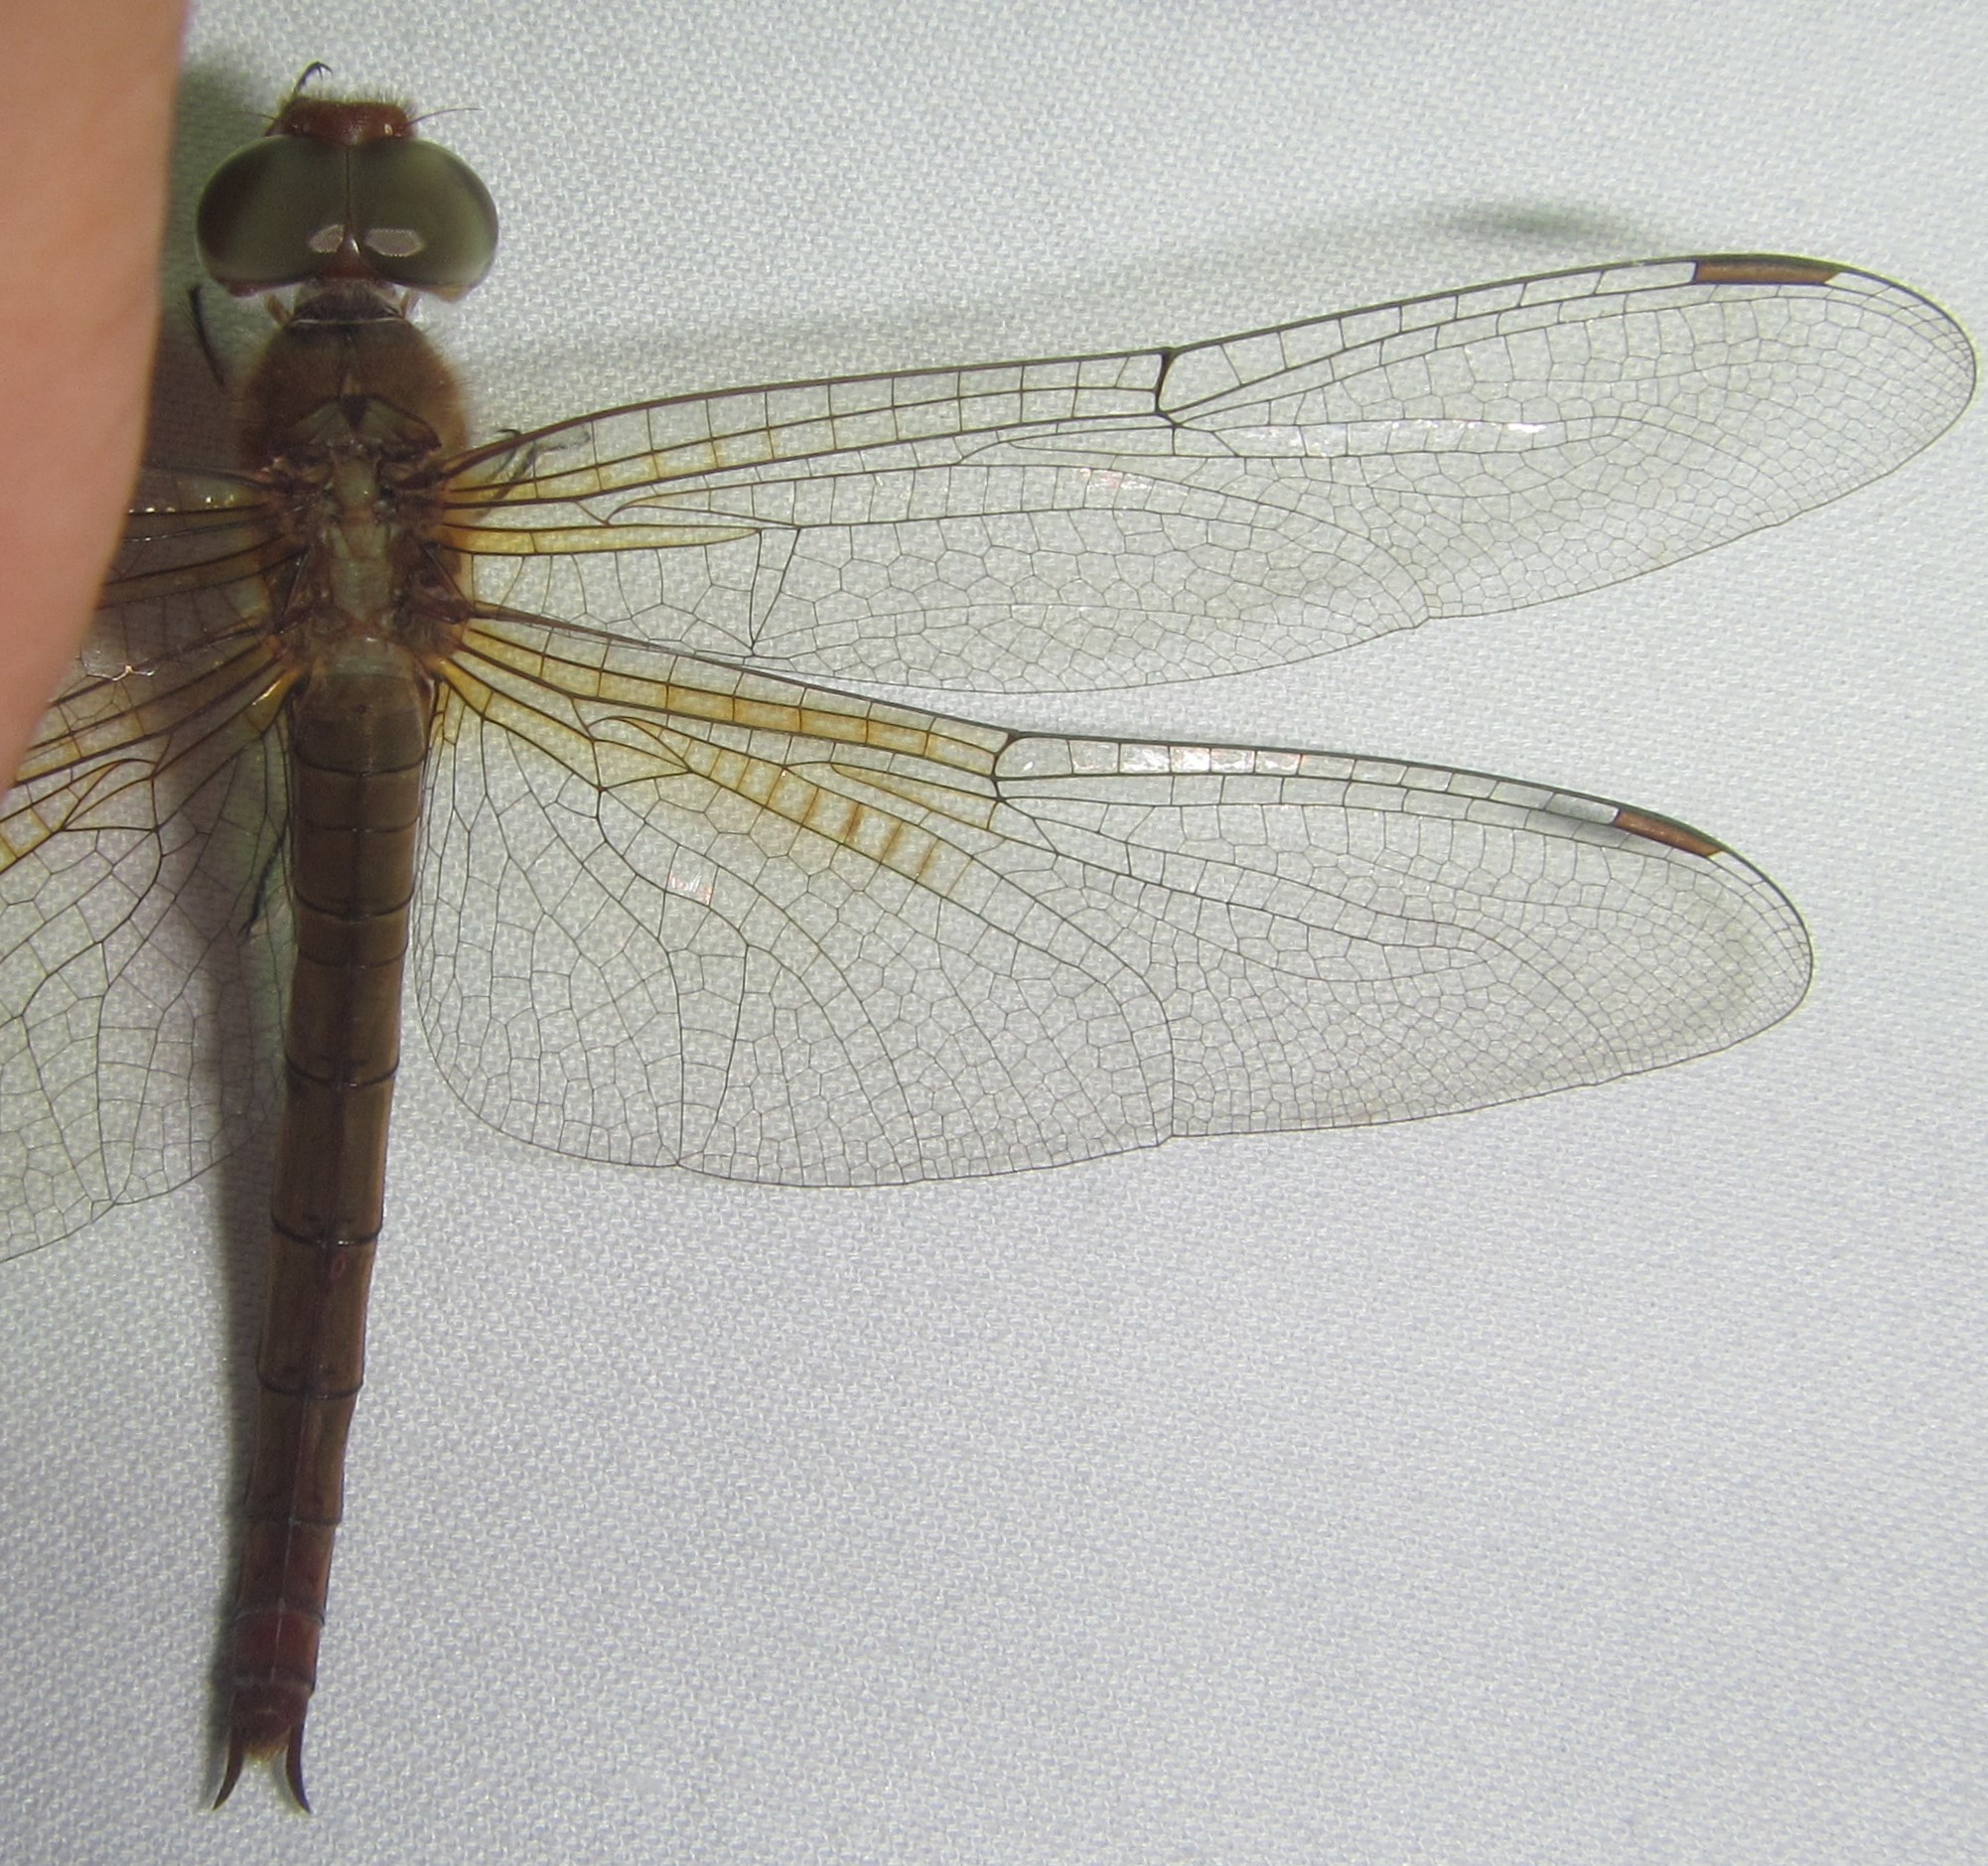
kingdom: Animalia
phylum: Arthropoda
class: Insecta
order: Odonata
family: Libellulidae
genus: Tholymis
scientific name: Tholymis tillarga
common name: Coral-tailed cloud wing
